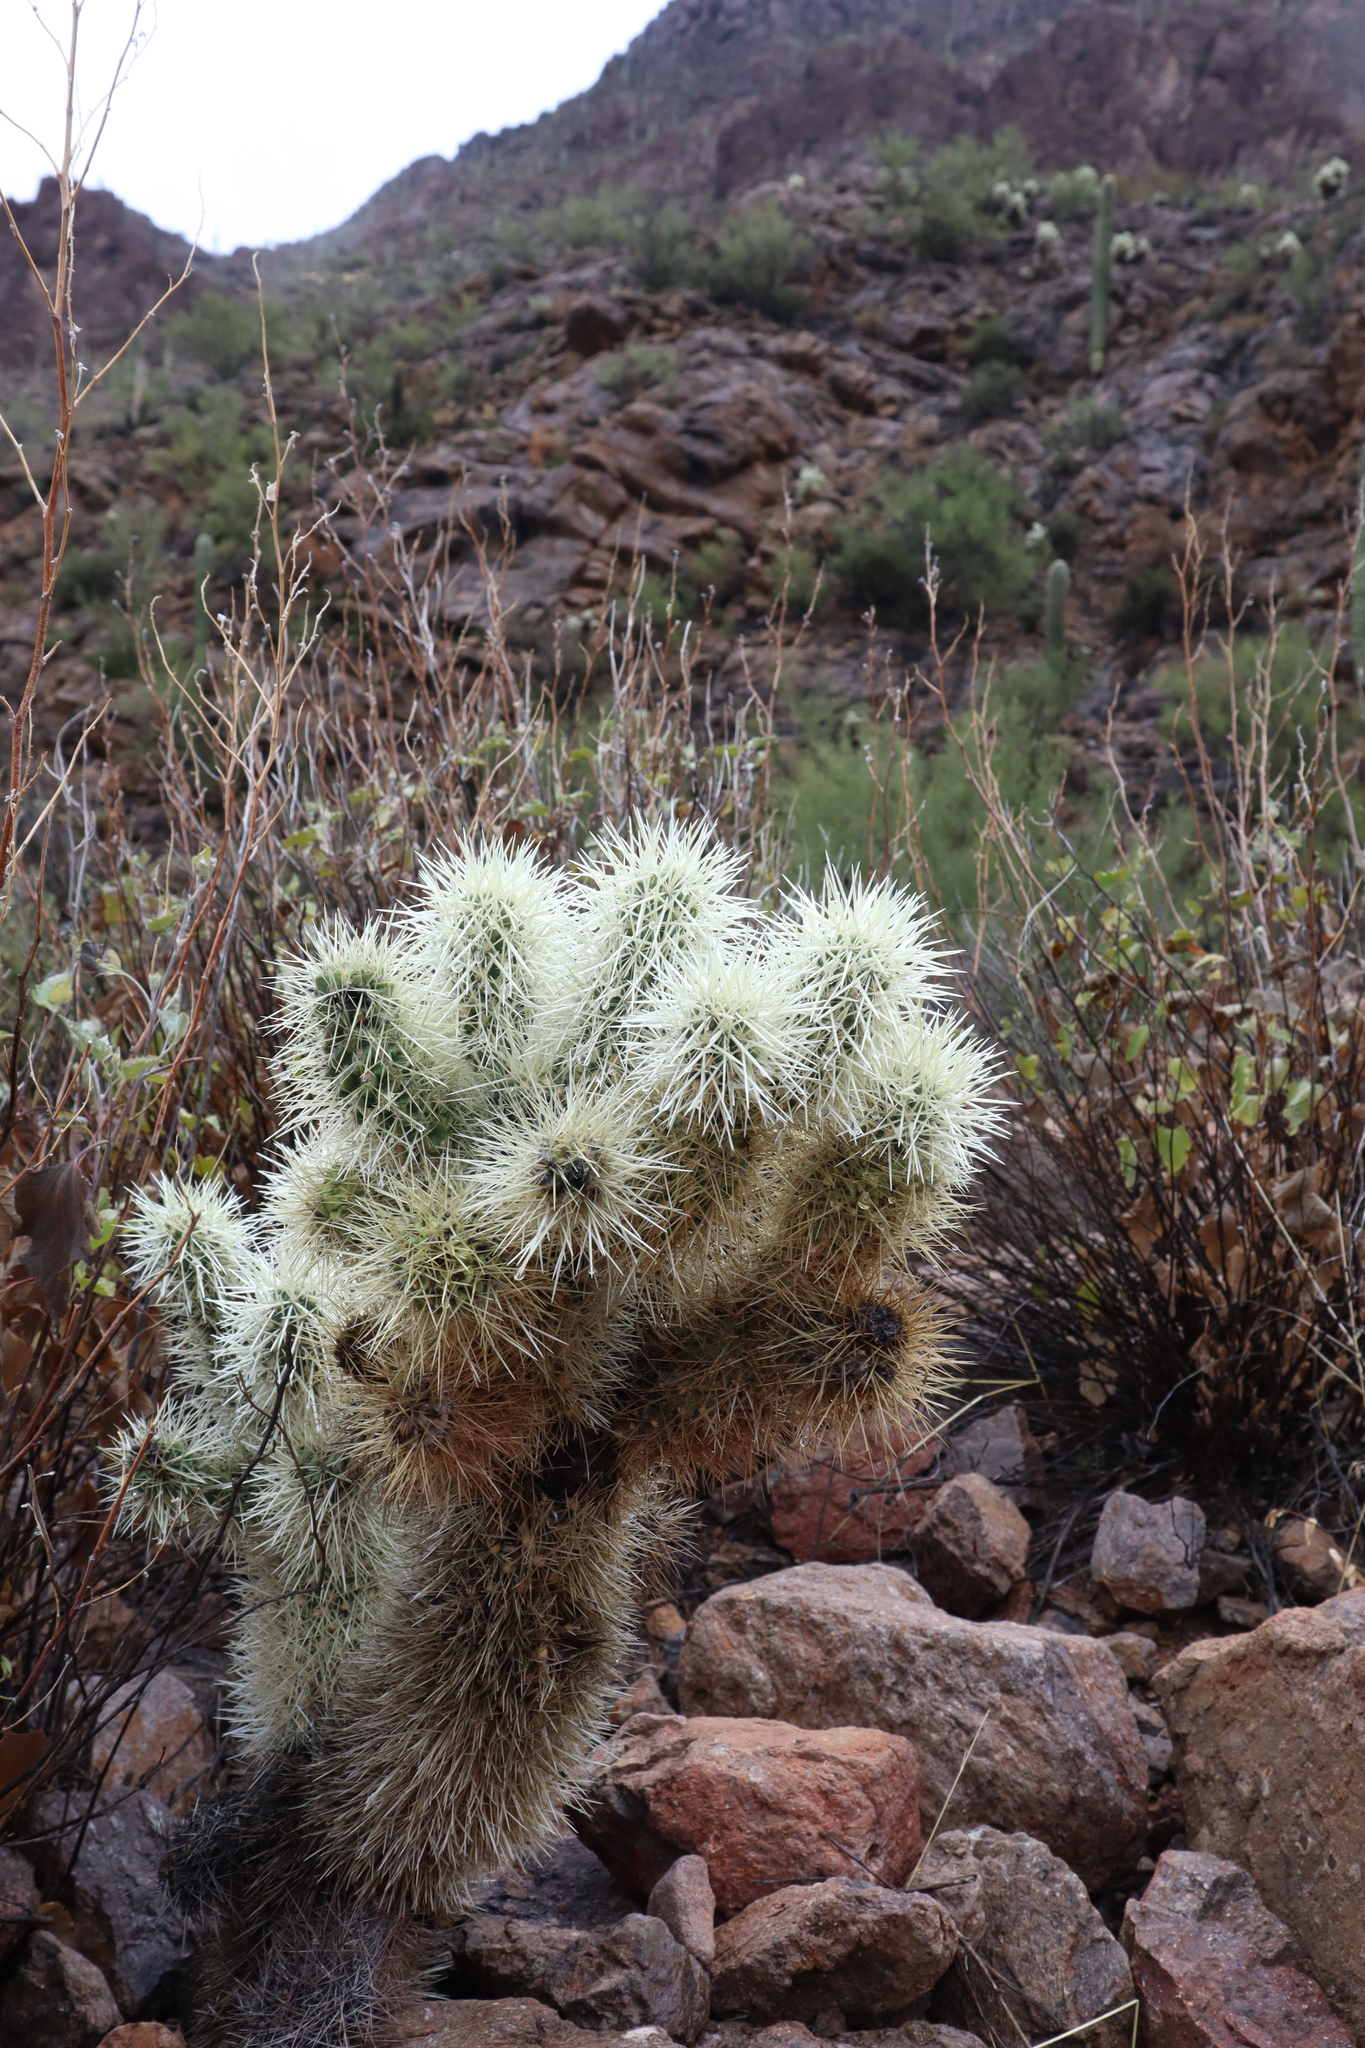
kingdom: Plantae
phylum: Tracheophyta
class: Magnoliopsida
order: Caryophyllales
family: Cactaceae
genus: Cylindropuntia
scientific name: Cylindropuntia fosbergii
